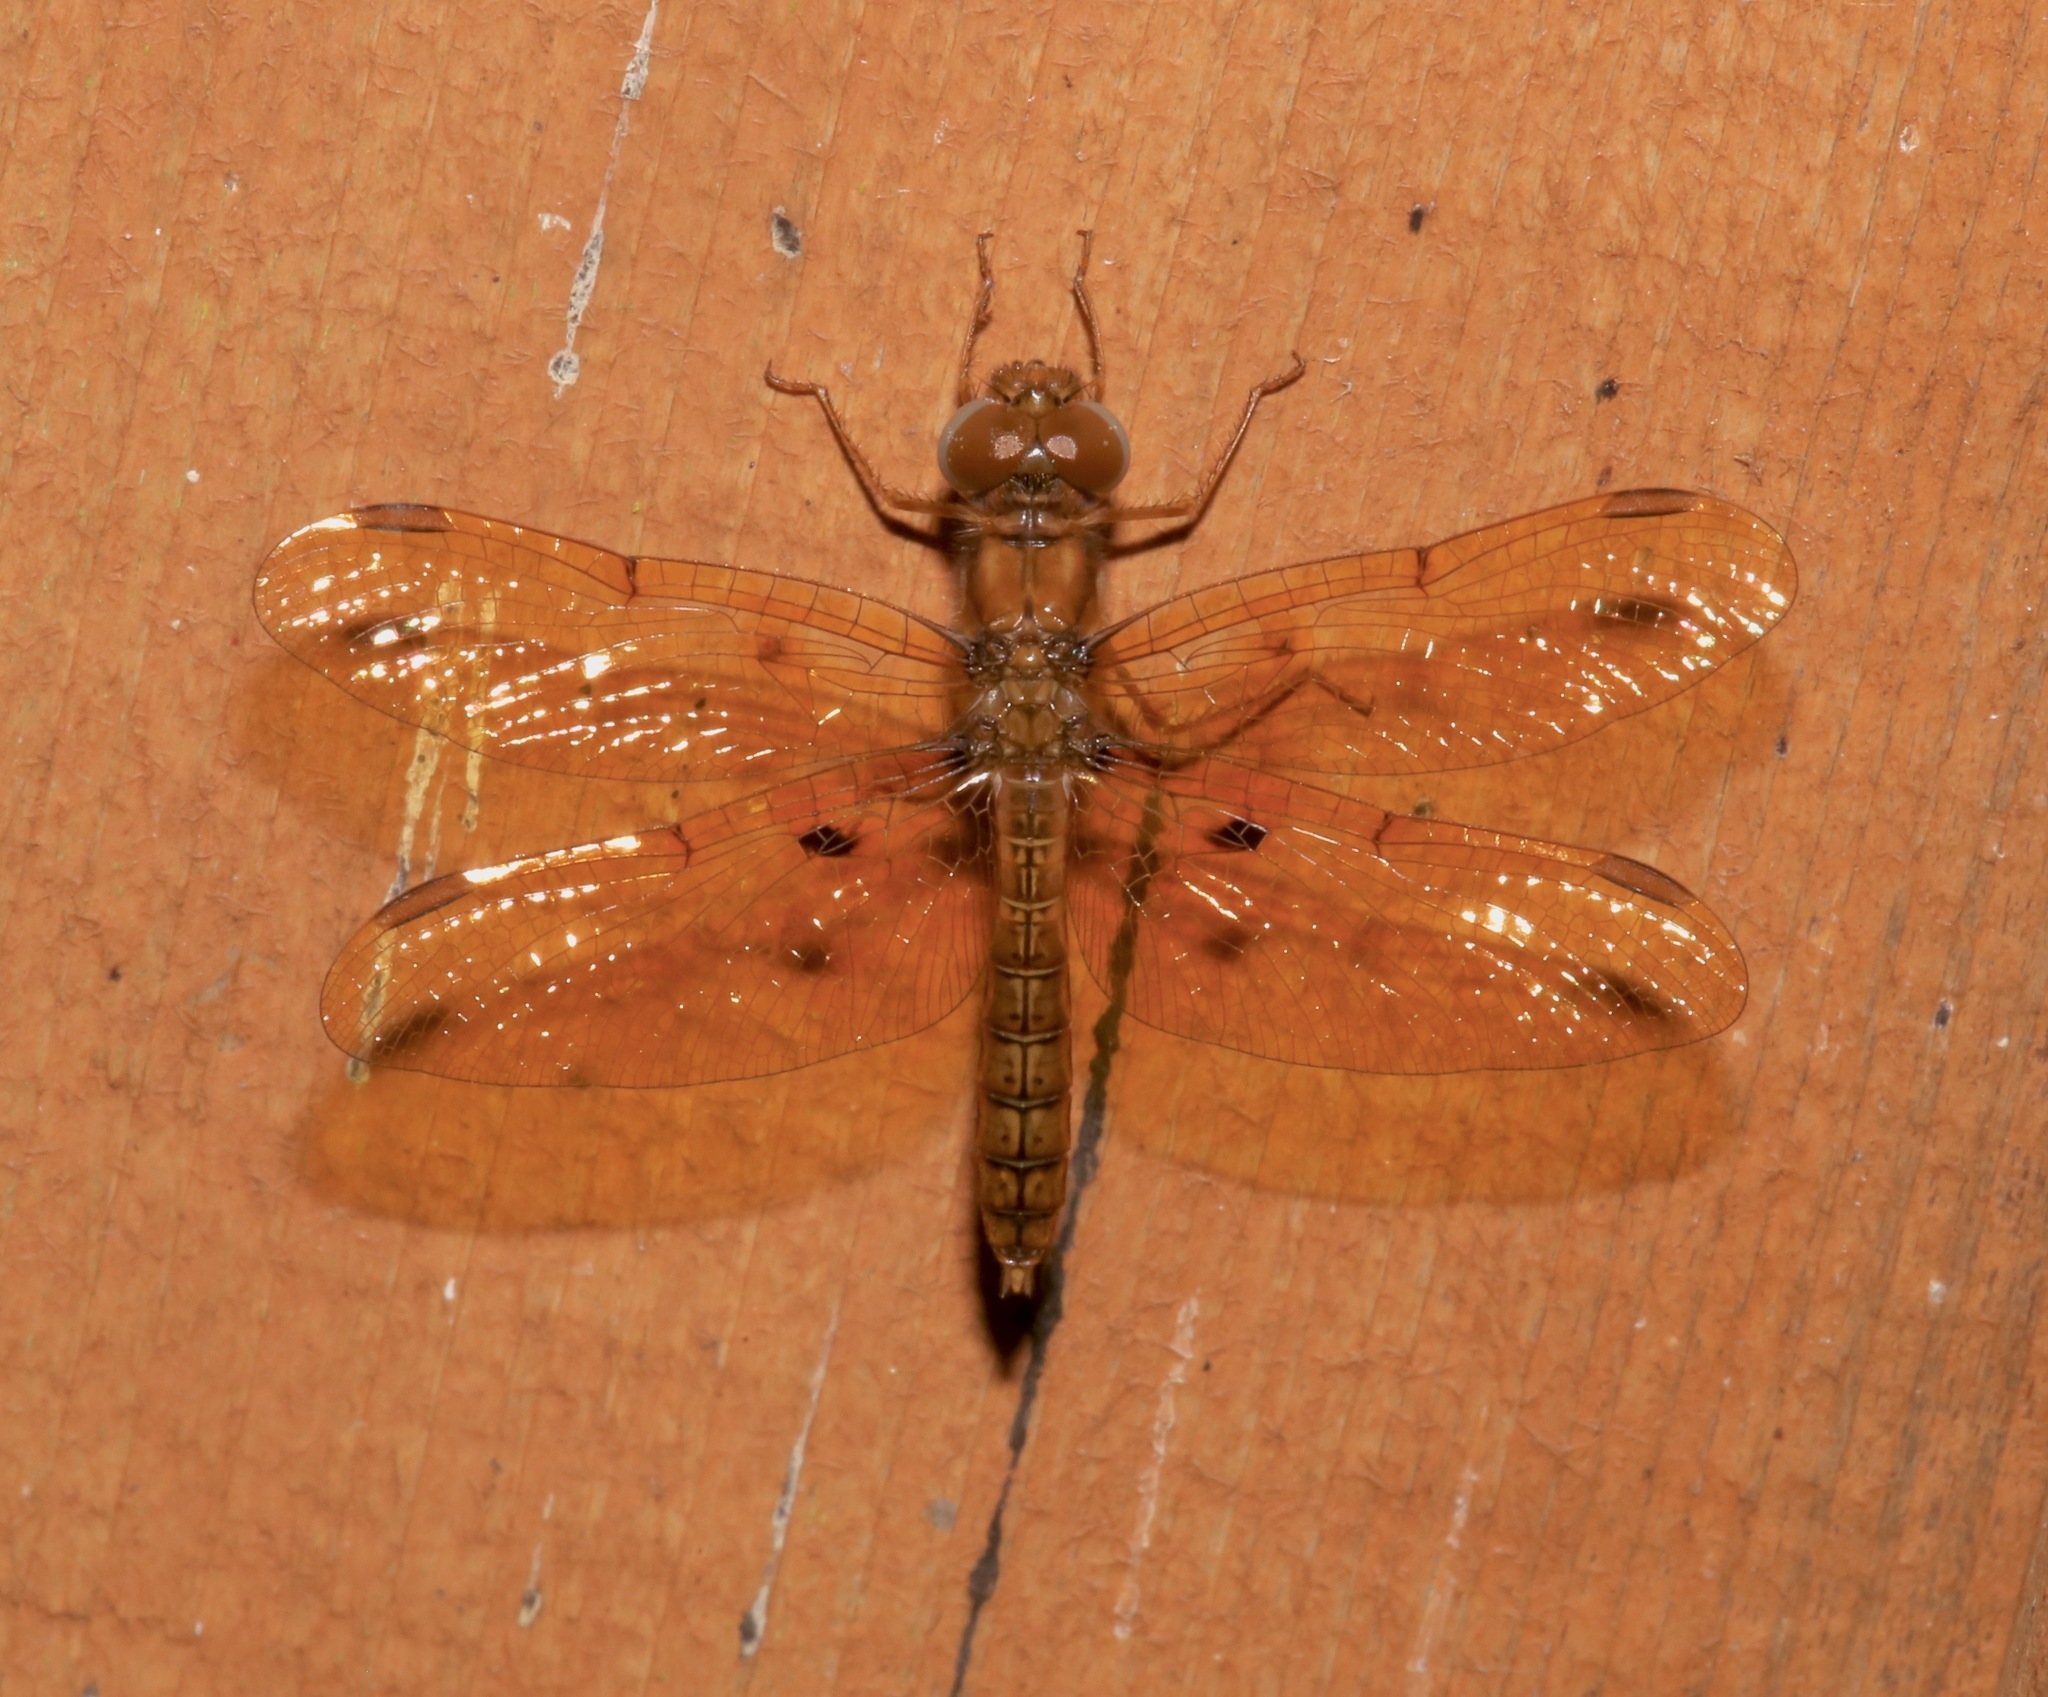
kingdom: Animalia
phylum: Arthropoda
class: Insecta
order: Odonata
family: Libellulidae
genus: Perithemis
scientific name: Perithemis tenera
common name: Eastern amberwing
